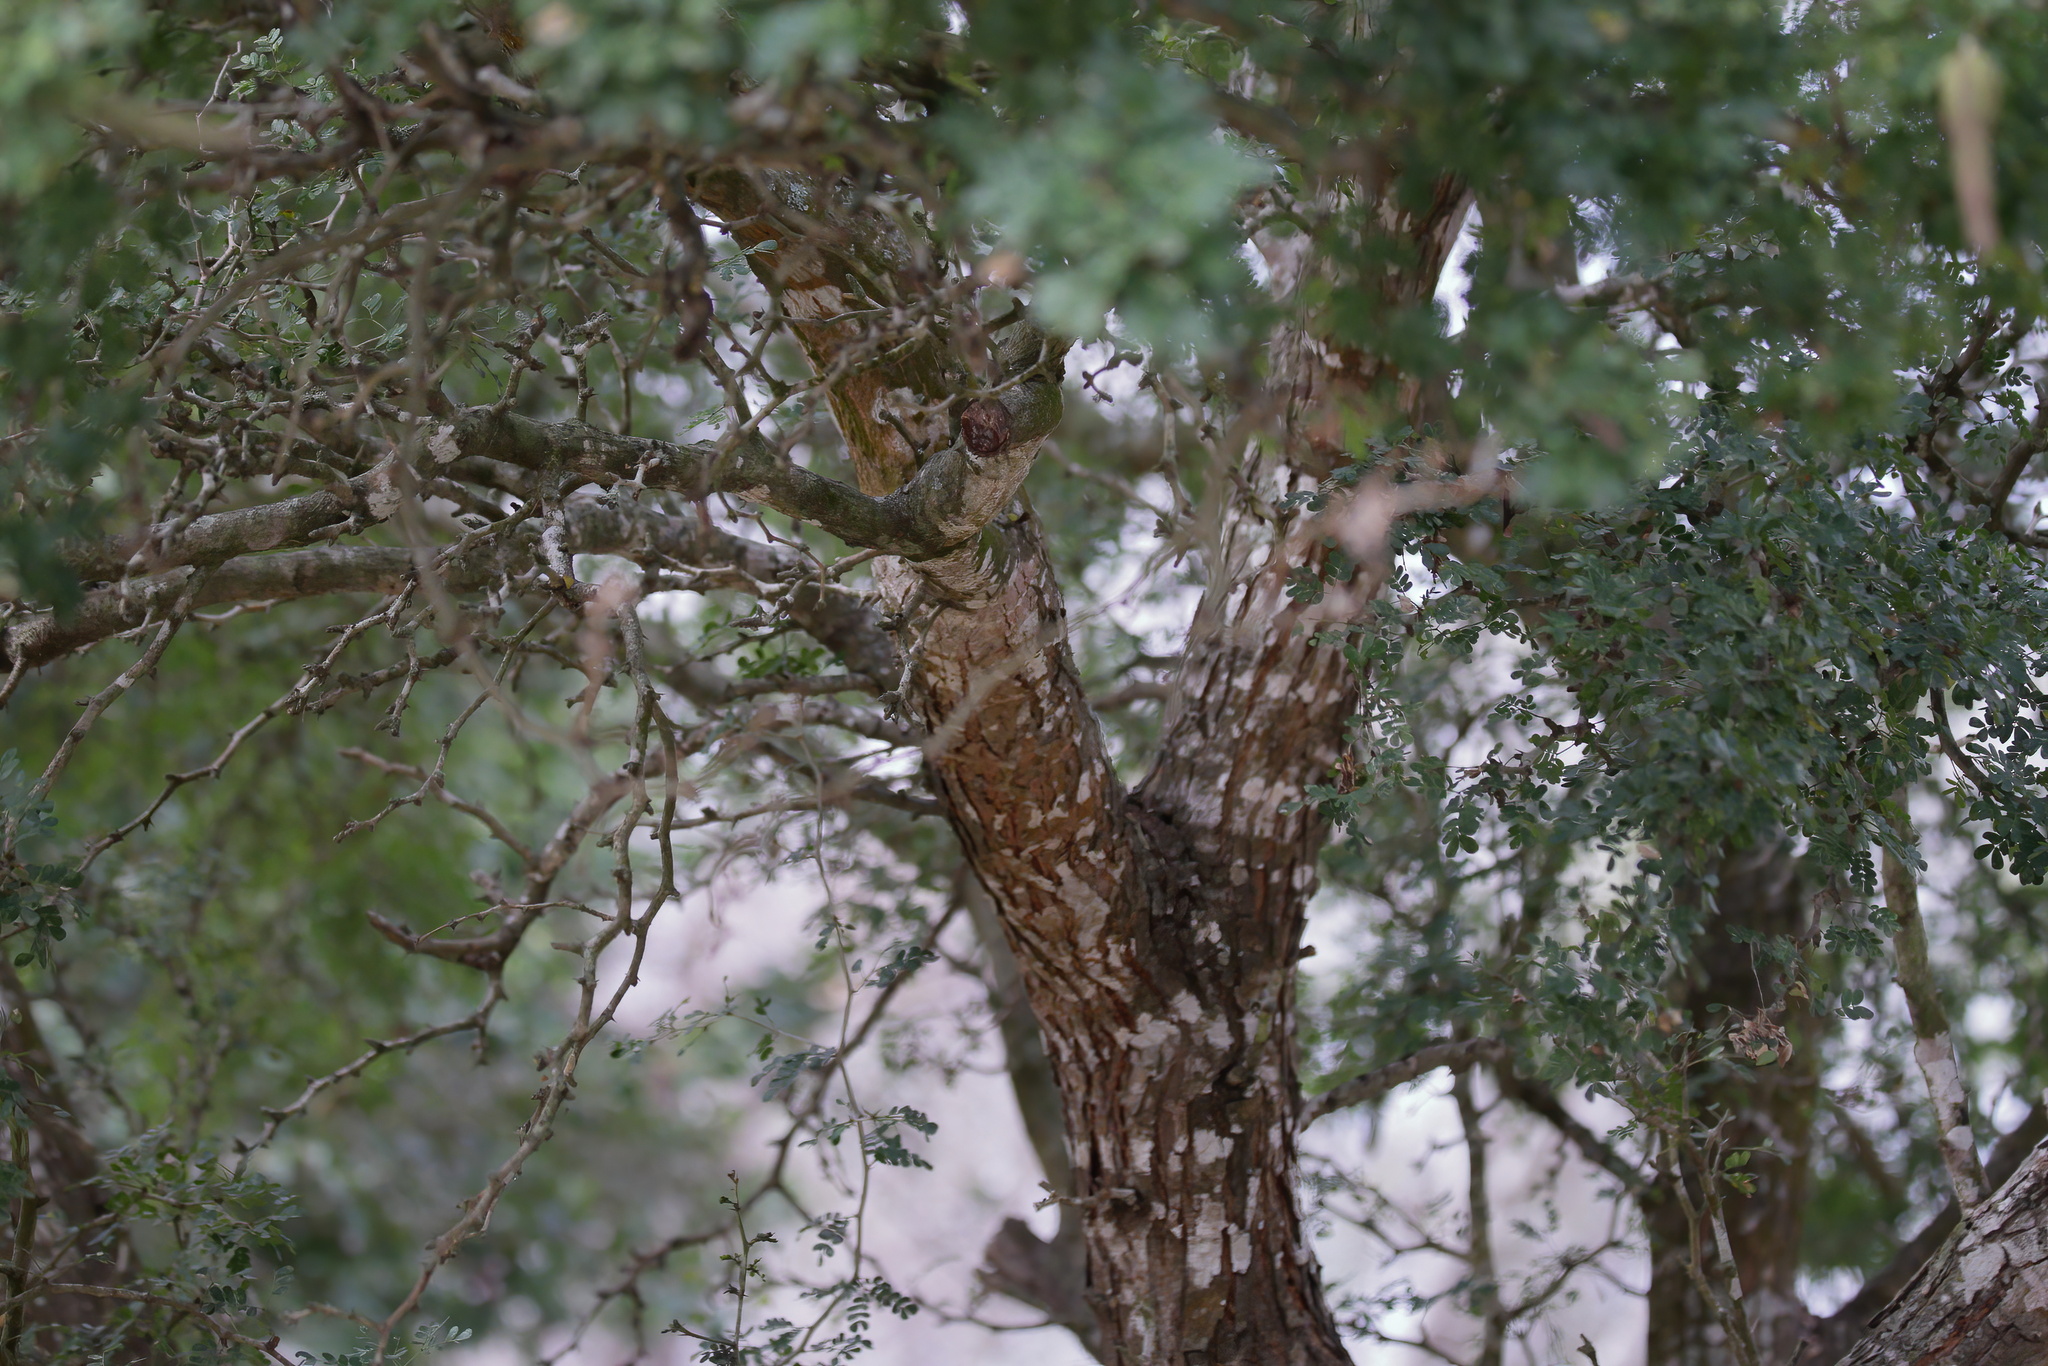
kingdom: Plantae
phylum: Tracheophyta
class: Magnoliopsida
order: Fabales
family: Fabaceae
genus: Ebenopsis
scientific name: Ebenopsis ebano
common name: Ebony blackbead
